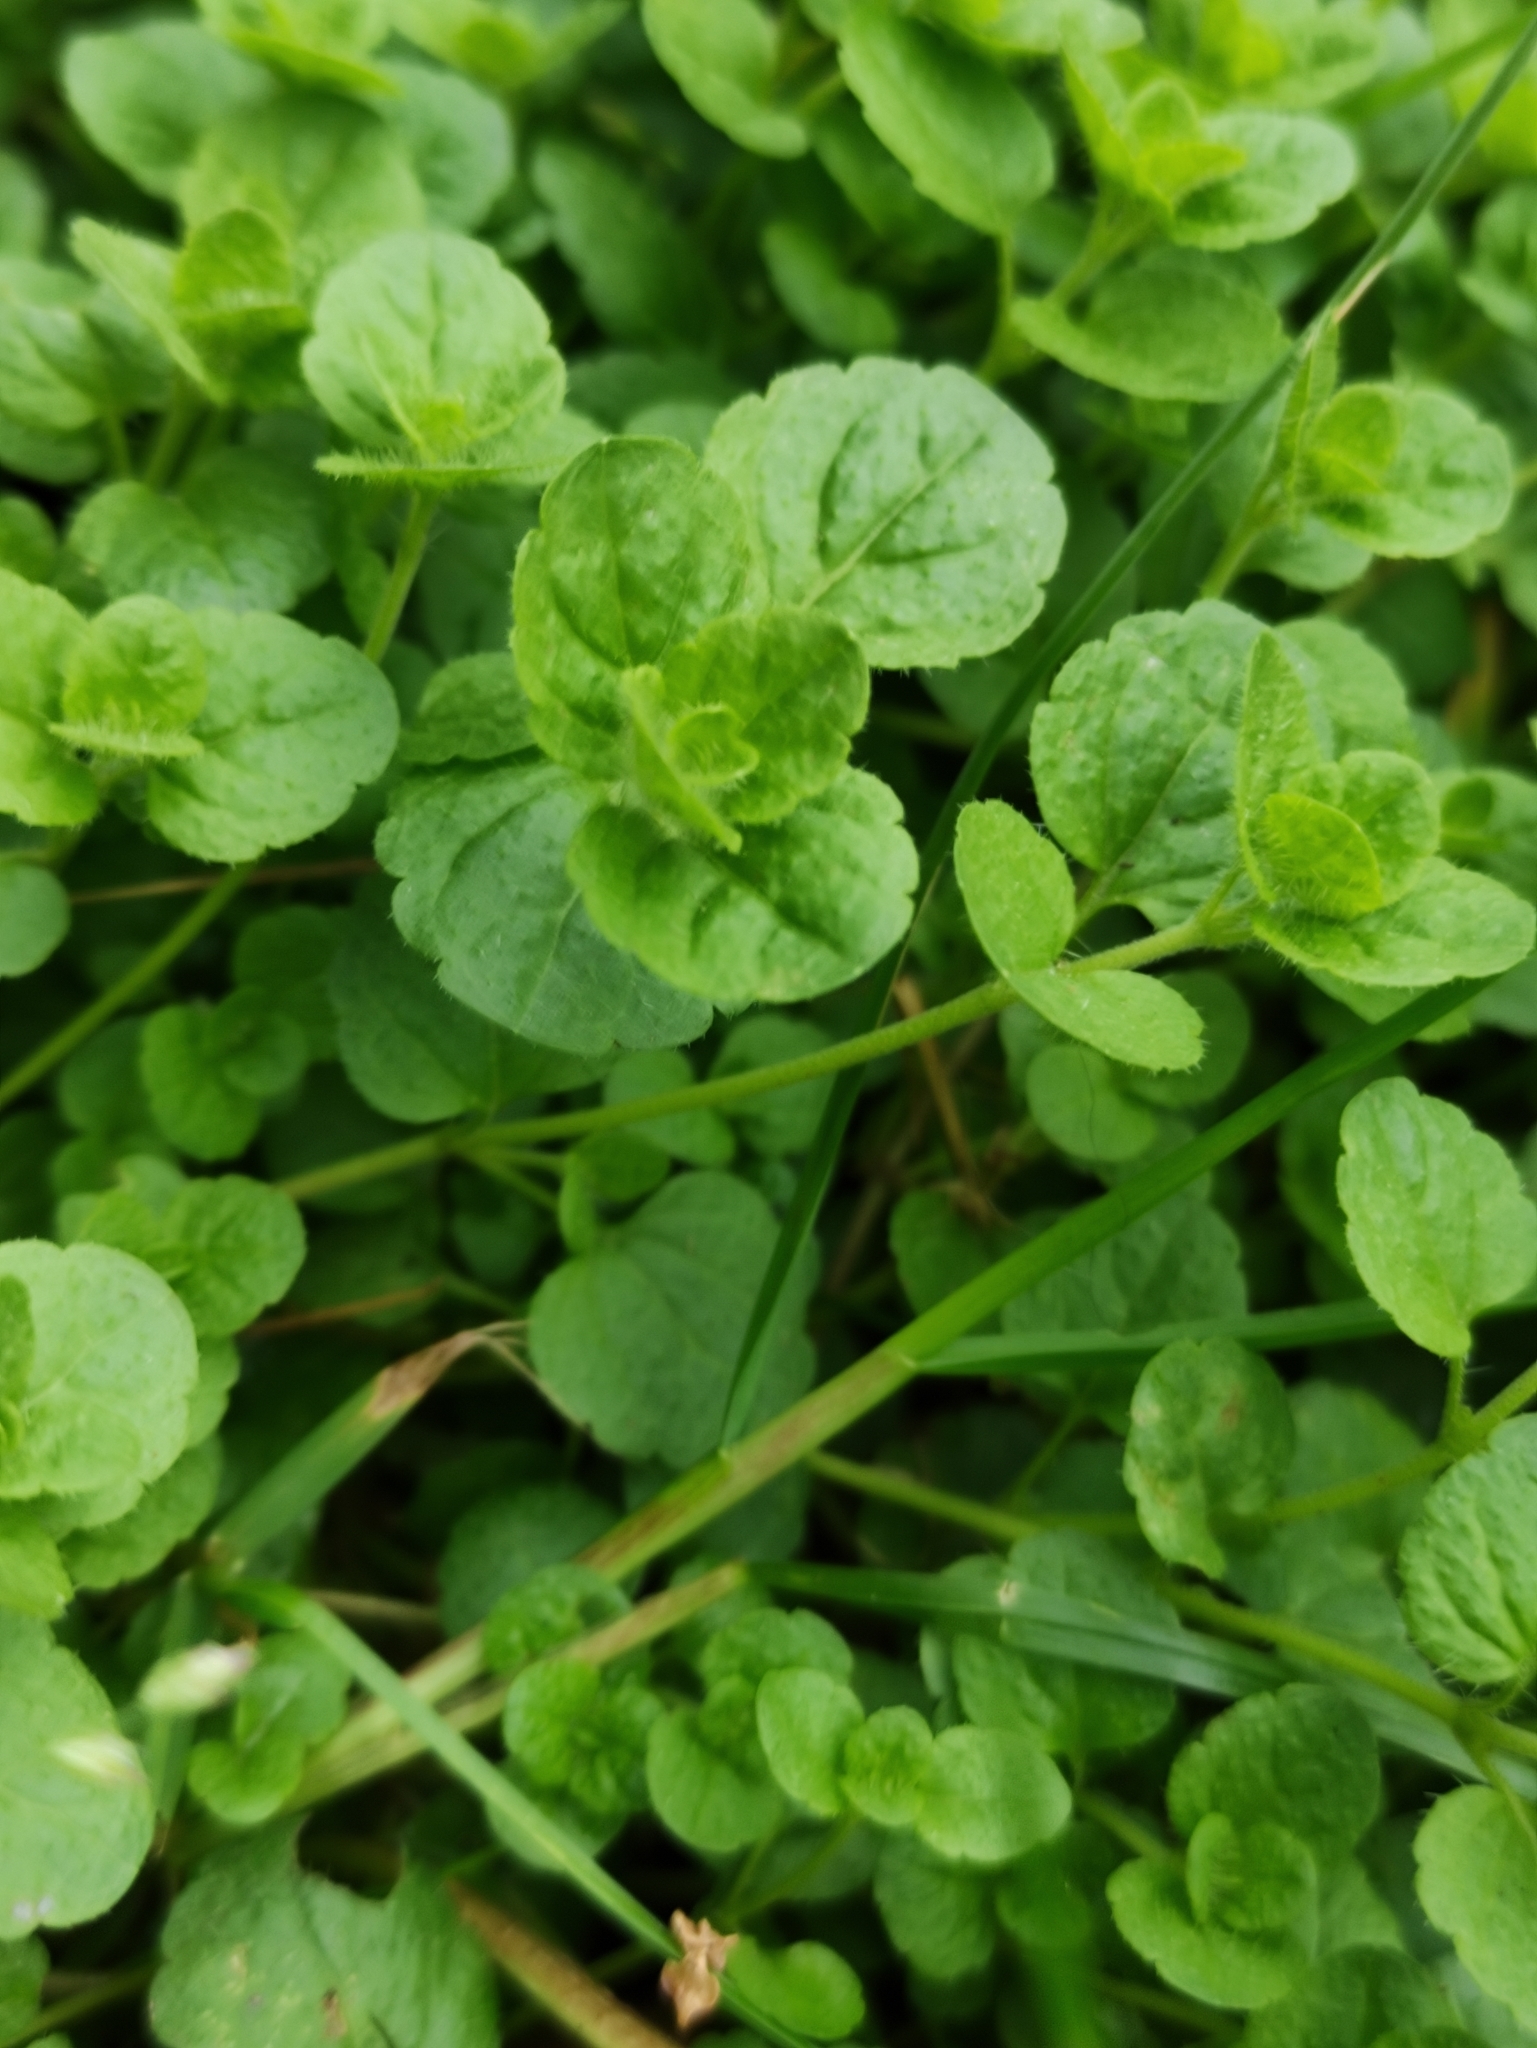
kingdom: Plantae
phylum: Tracheophyta
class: Magnoliopsida
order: Lamiales
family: Plantaginaceae
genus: Veronica
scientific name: Veronica filiformis
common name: Slender speedwell
